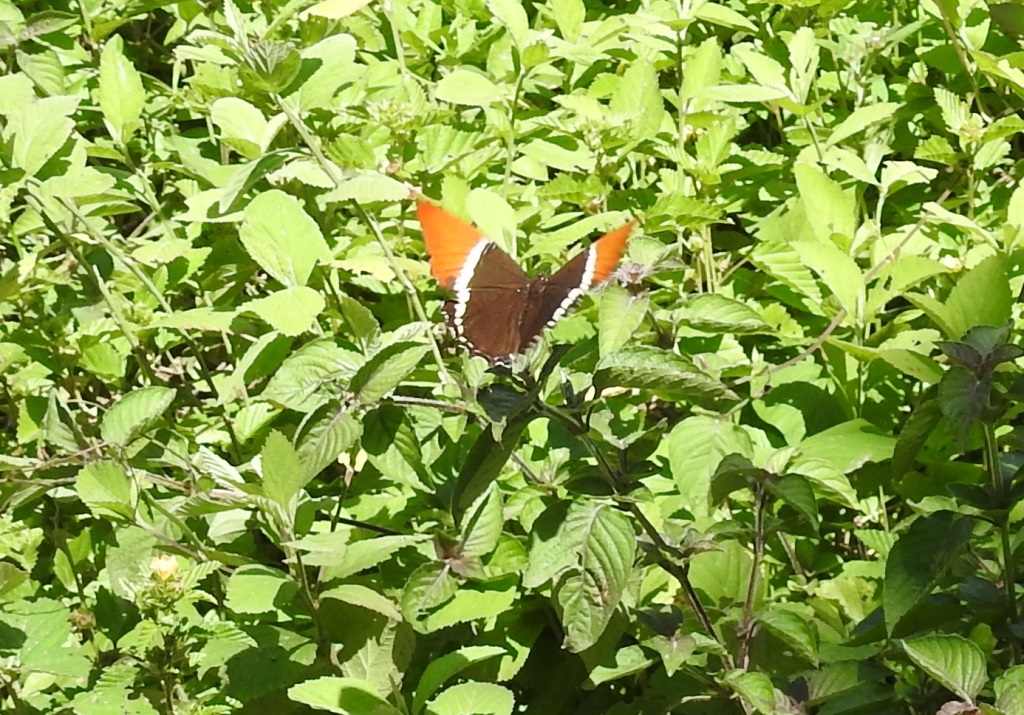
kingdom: Animalia
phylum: Arthropoda
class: Insecta
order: Lepidoptera
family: Nymphalidae
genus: Siproeta
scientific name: Siproeta epaphus
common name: Rusty-tipped page
